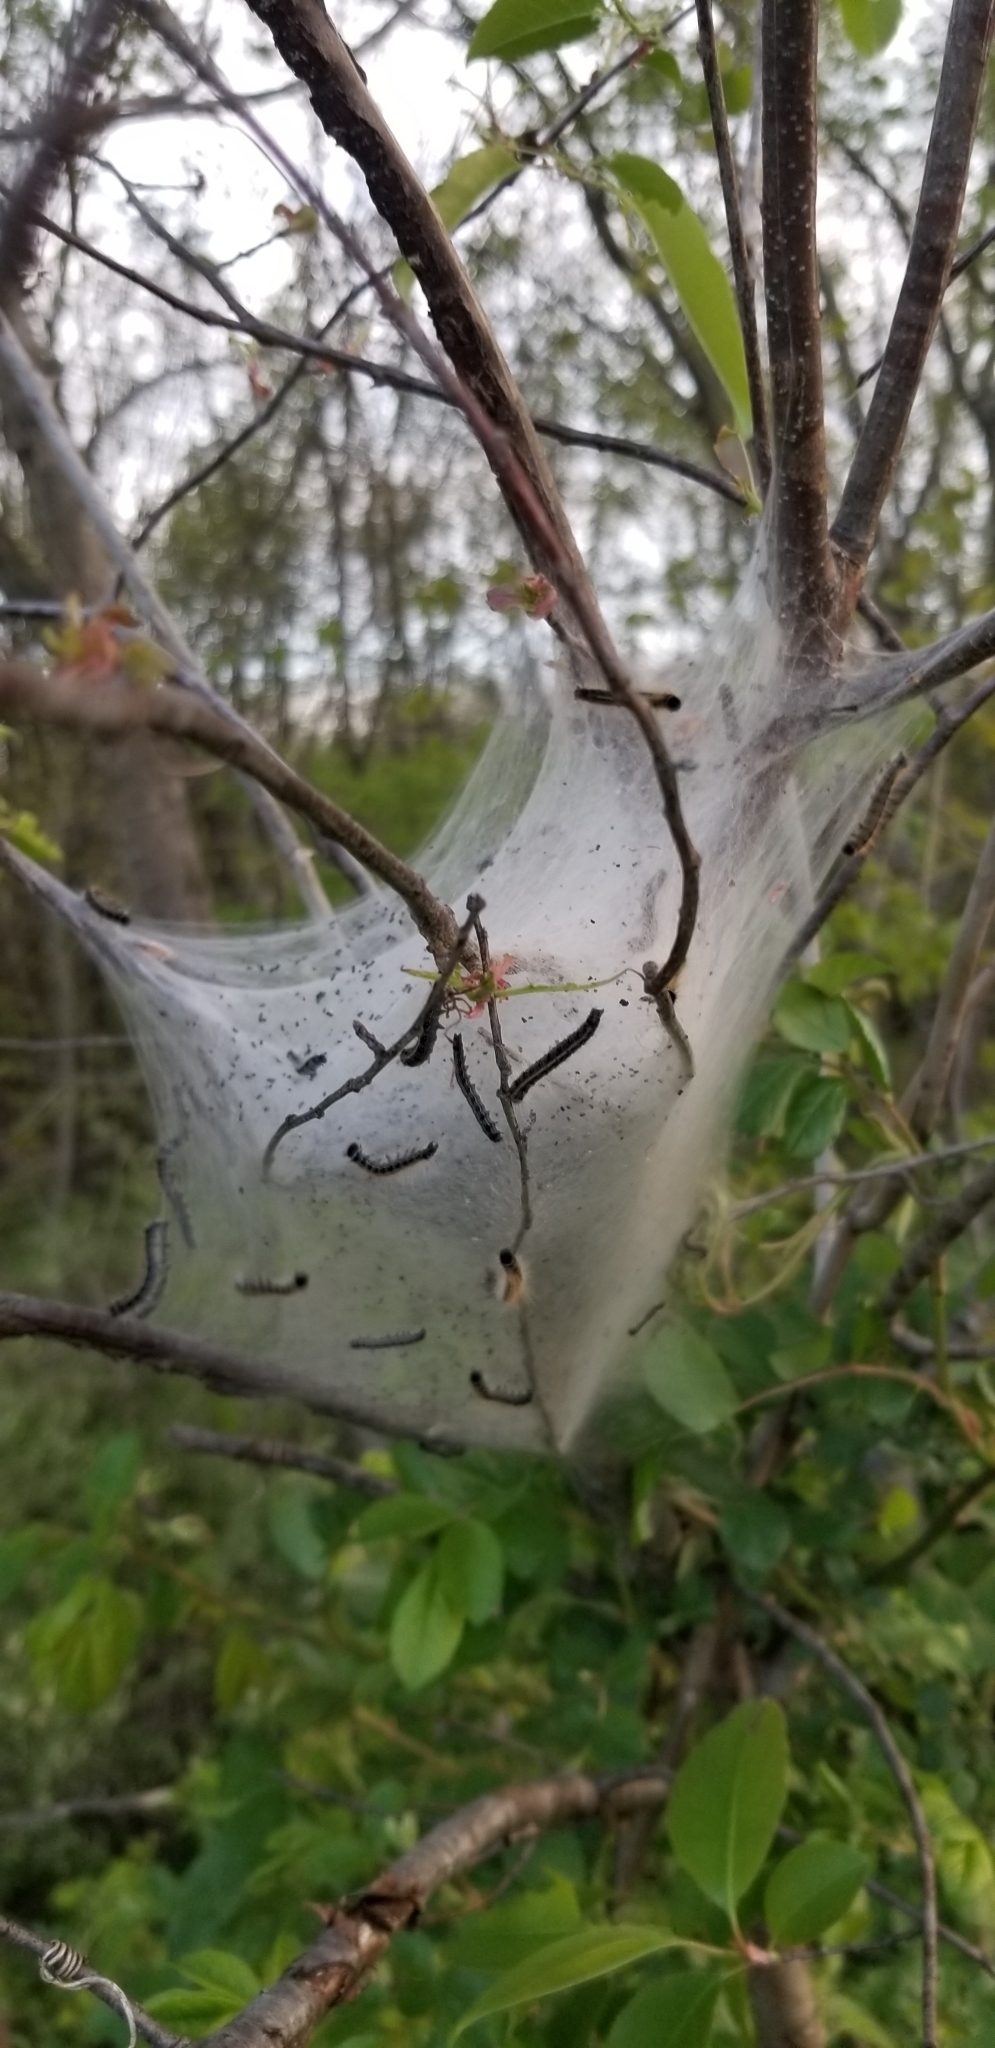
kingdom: Animalia
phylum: Arthropoda
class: Insecta
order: Lepidoptera
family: Lasiocampidae
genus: Malacosoma
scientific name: Malacosoma americana
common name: Eastern tent caterpillar moth
